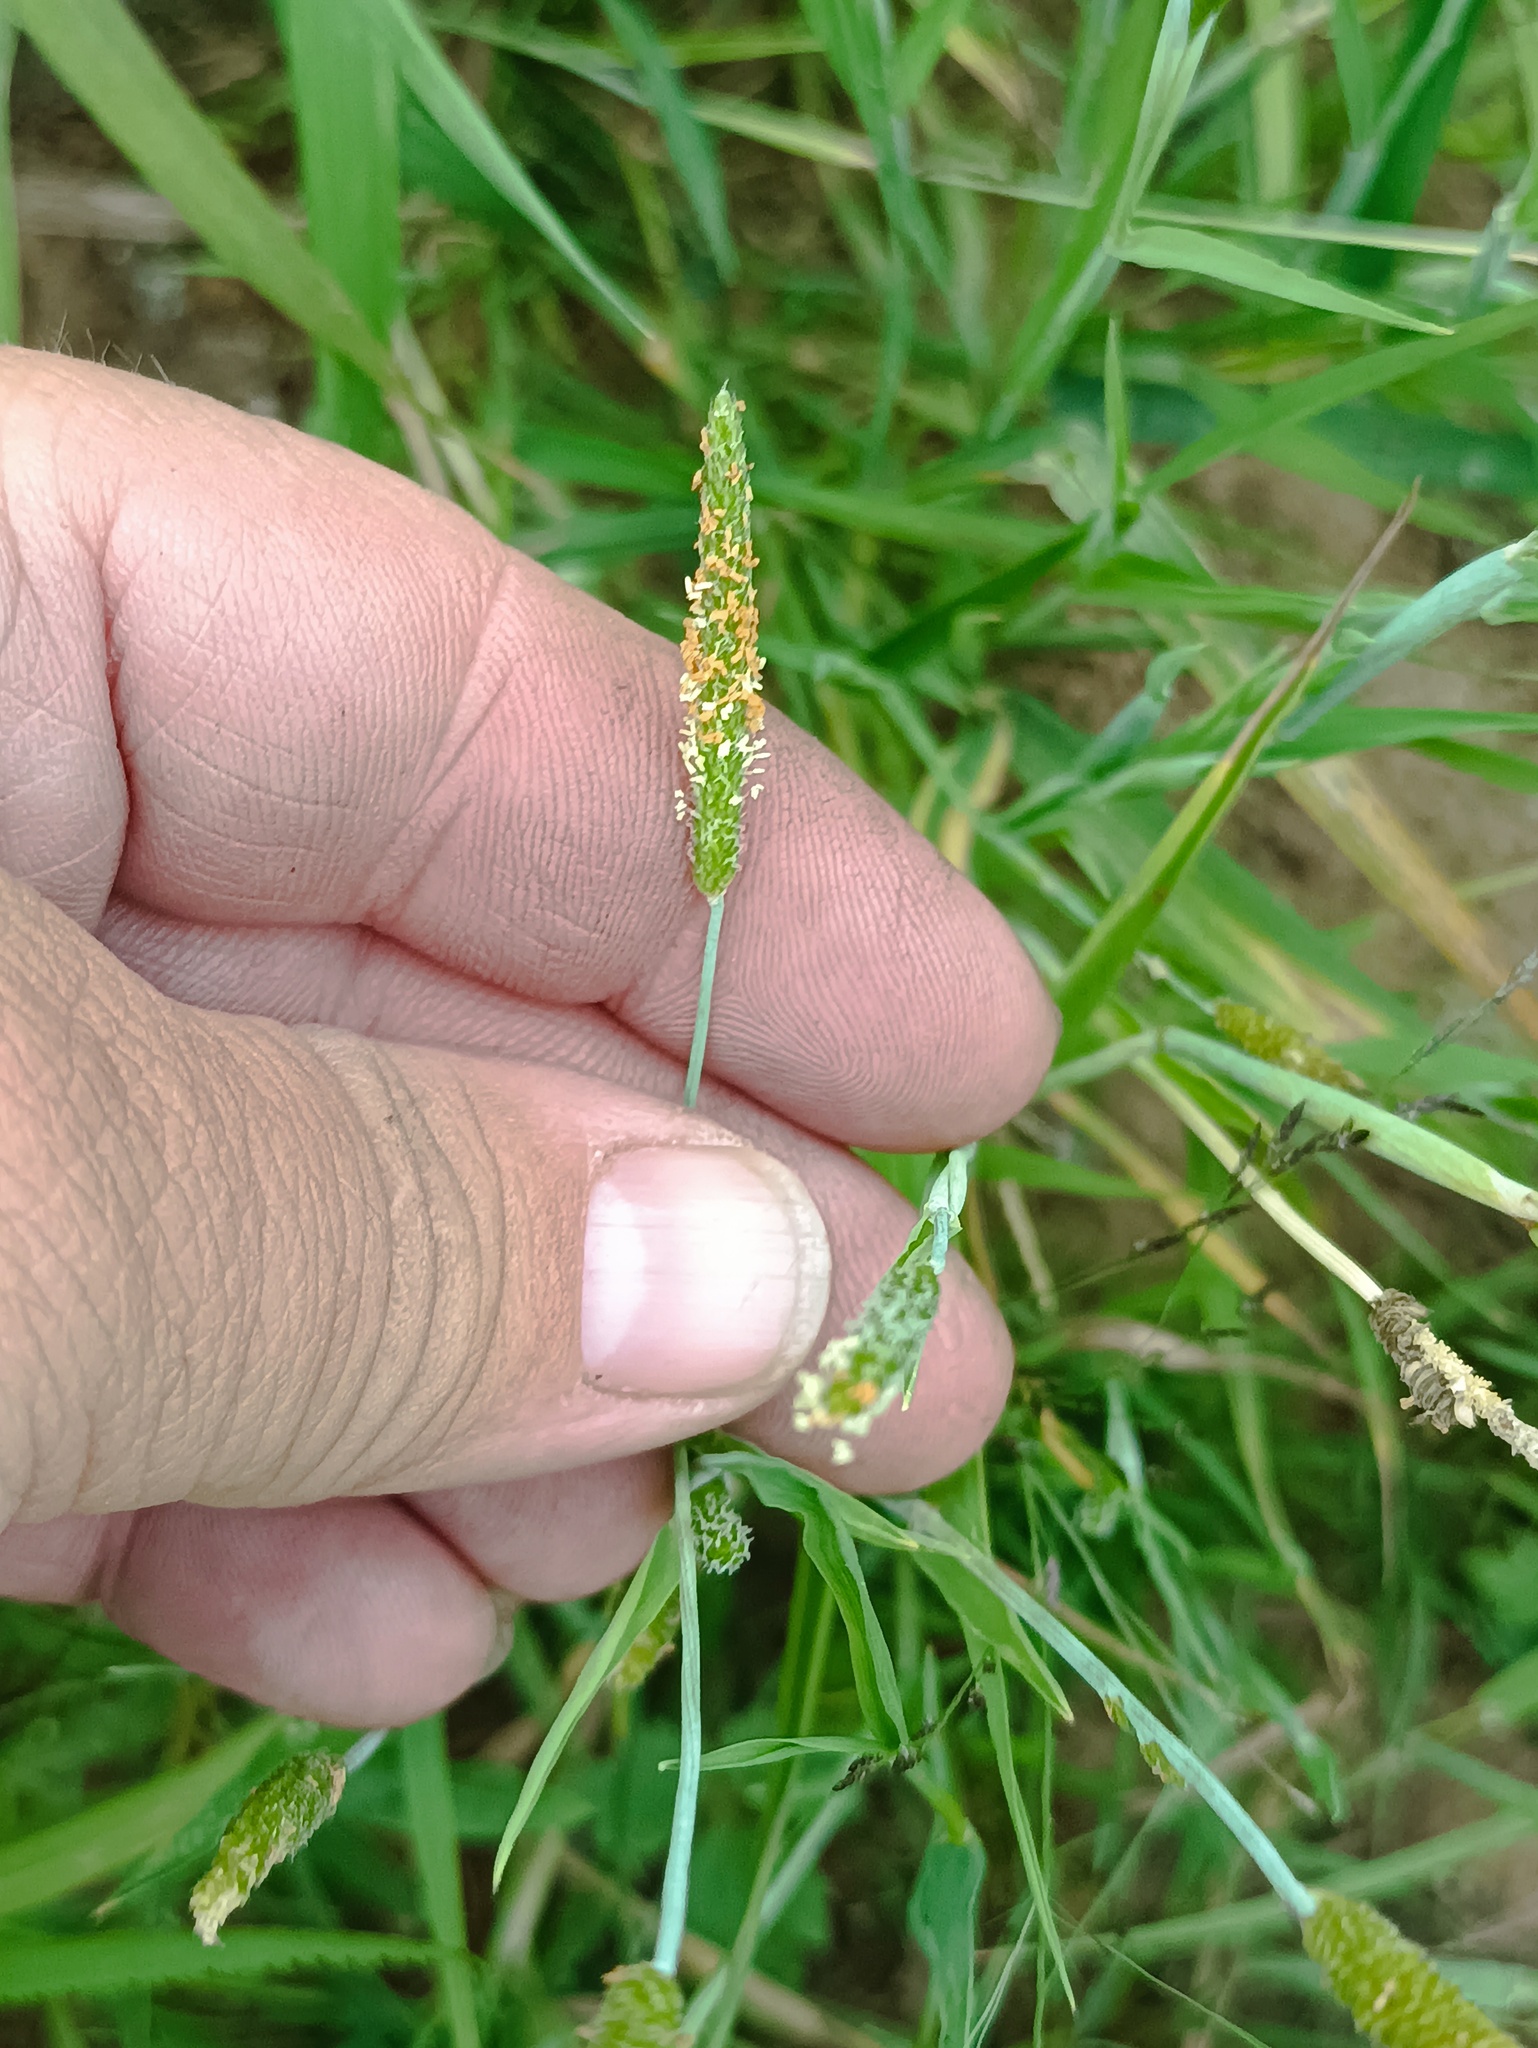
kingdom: Plantae
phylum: Tracheophyta
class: Liliopsida
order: Poales
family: Poaceae
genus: Alopecurus
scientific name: Alopecurus aequalis
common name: Orange foxtail
